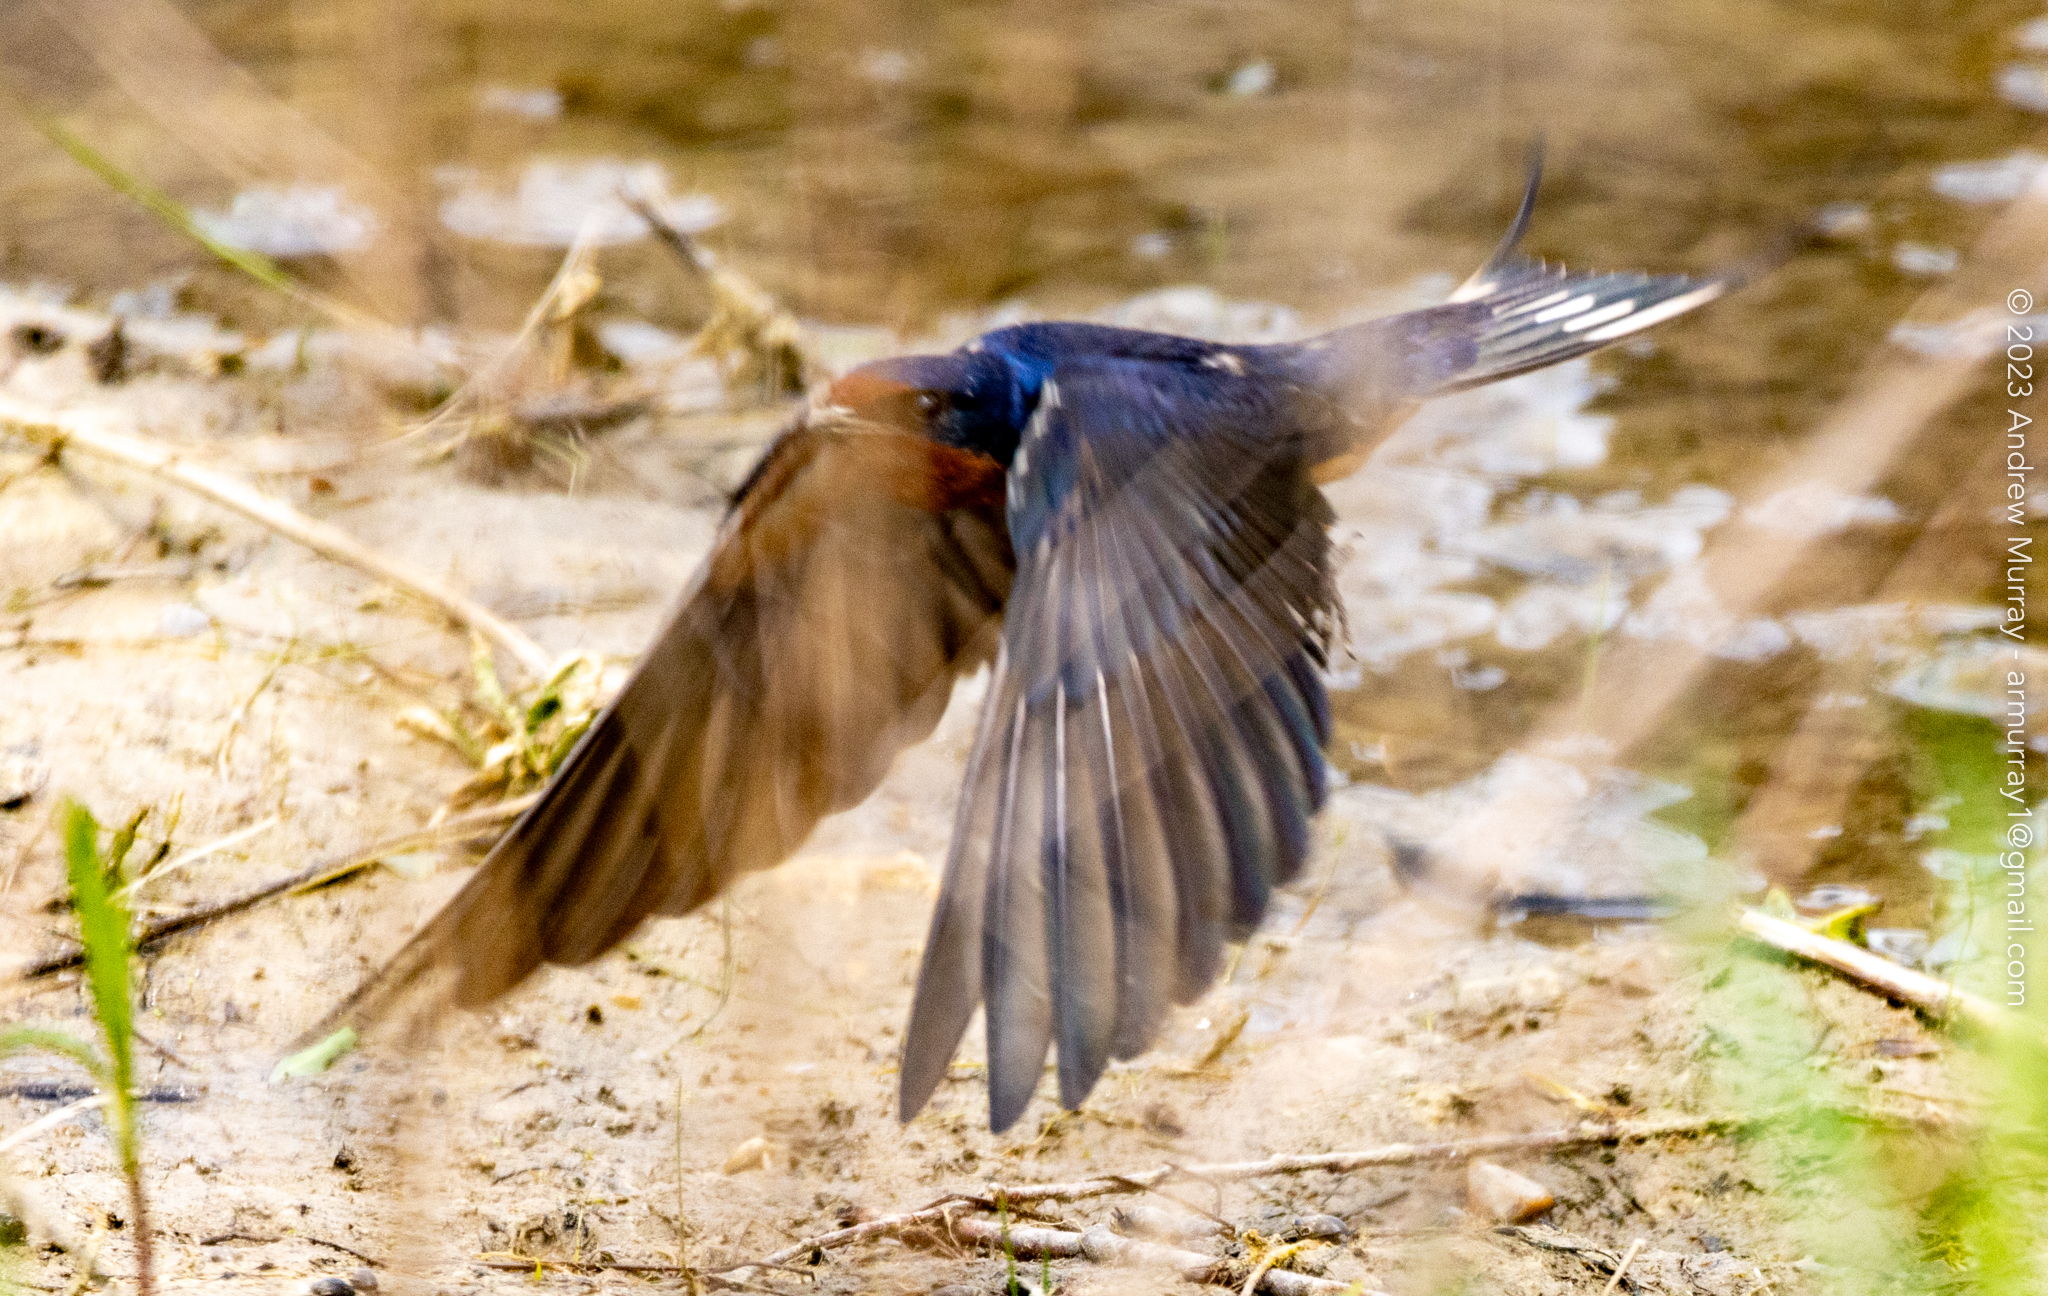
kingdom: Animalia
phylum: Chordata
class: Aves
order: Passeriformes
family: Hirundinidae
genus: Hirundo
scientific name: Hirundo rustica
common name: Barn swallow
